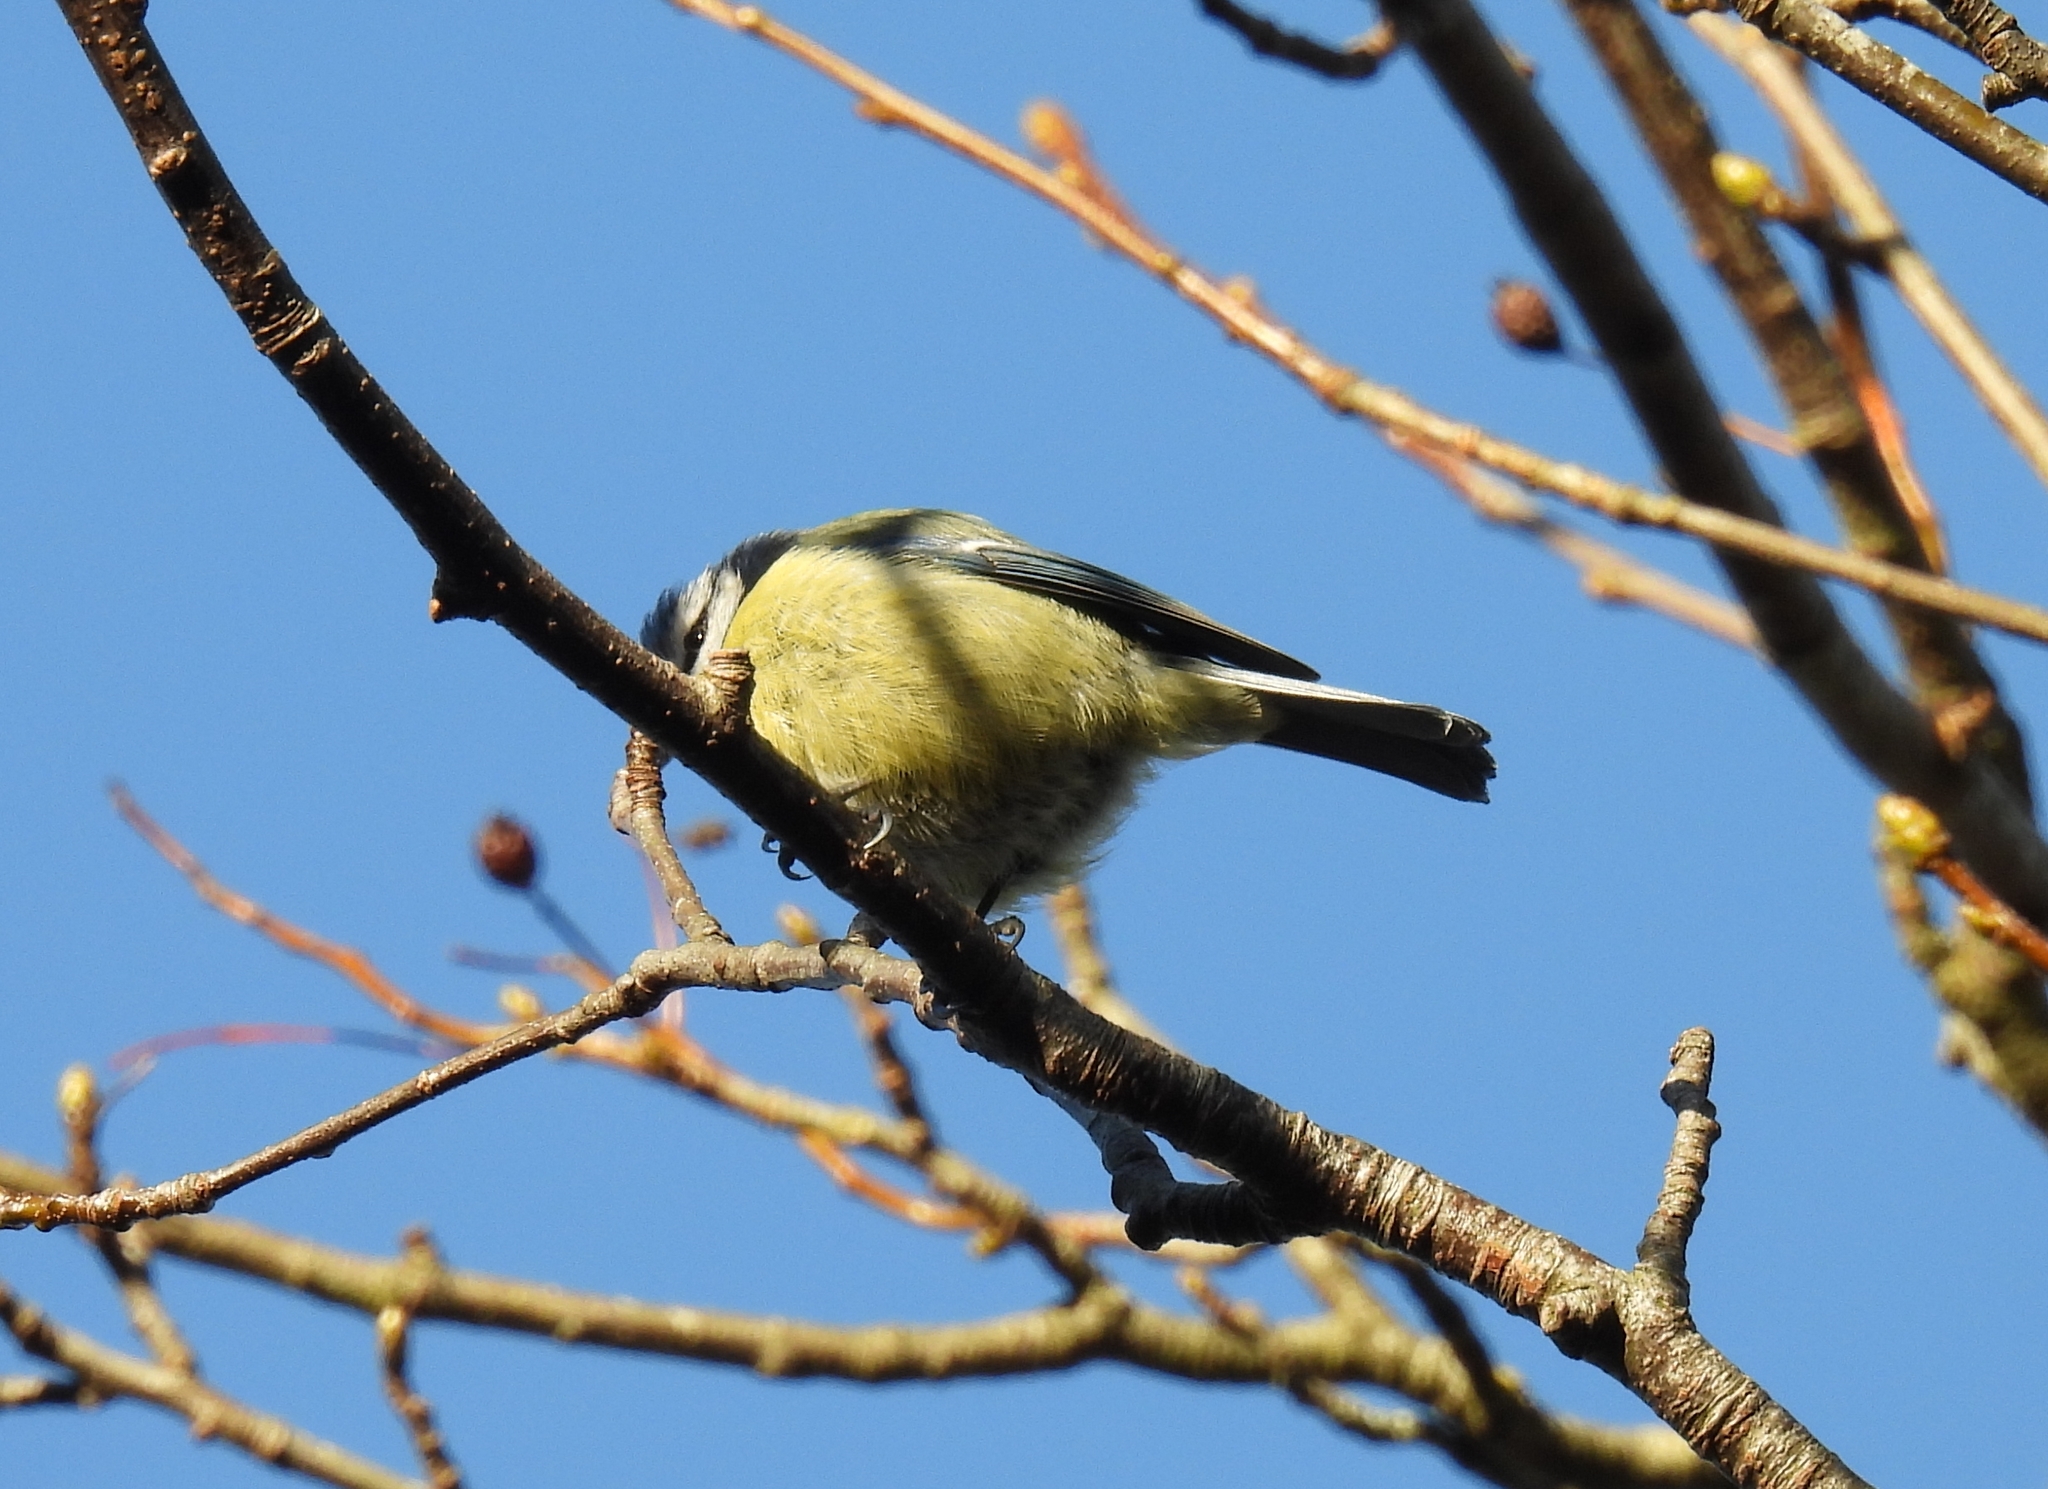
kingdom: Animalia
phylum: Chordata
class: Aves
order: Passeriformes
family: Paridae
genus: Cyanistes
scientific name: Cyanistes caeruleus
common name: Eurasian blue tit
